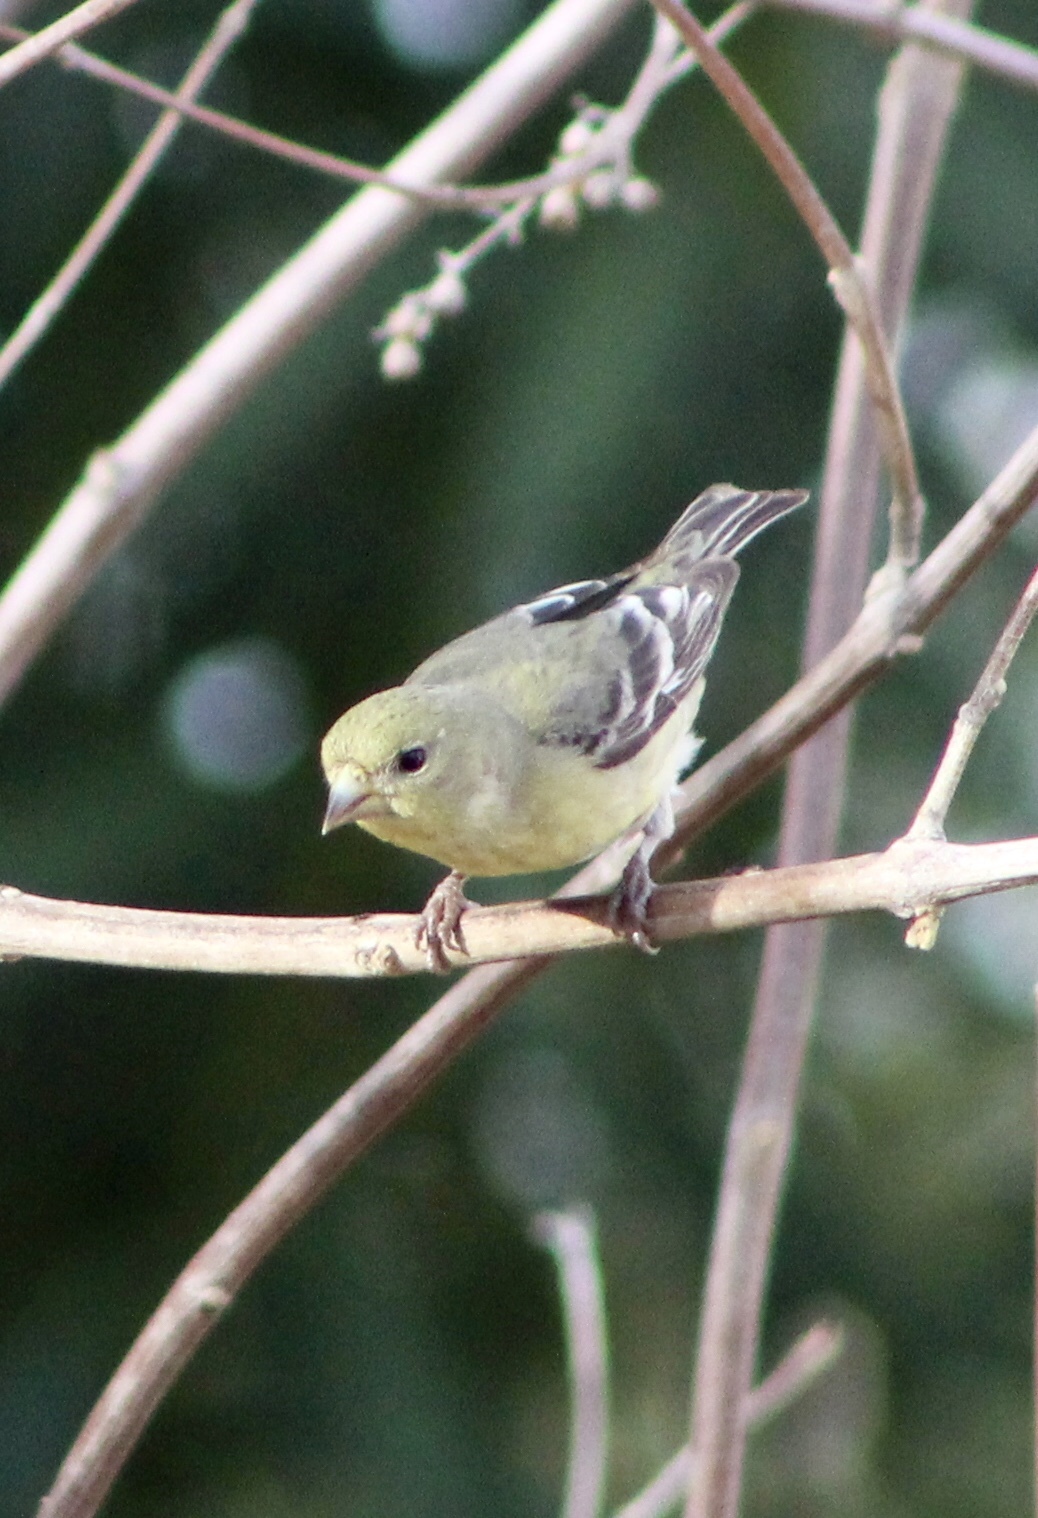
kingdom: Animalia
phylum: Chordata
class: Aves
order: Passeriformes
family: Fringillidae
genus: Spinus
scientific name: Spinus psaltria
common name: Lesser goldfinch
